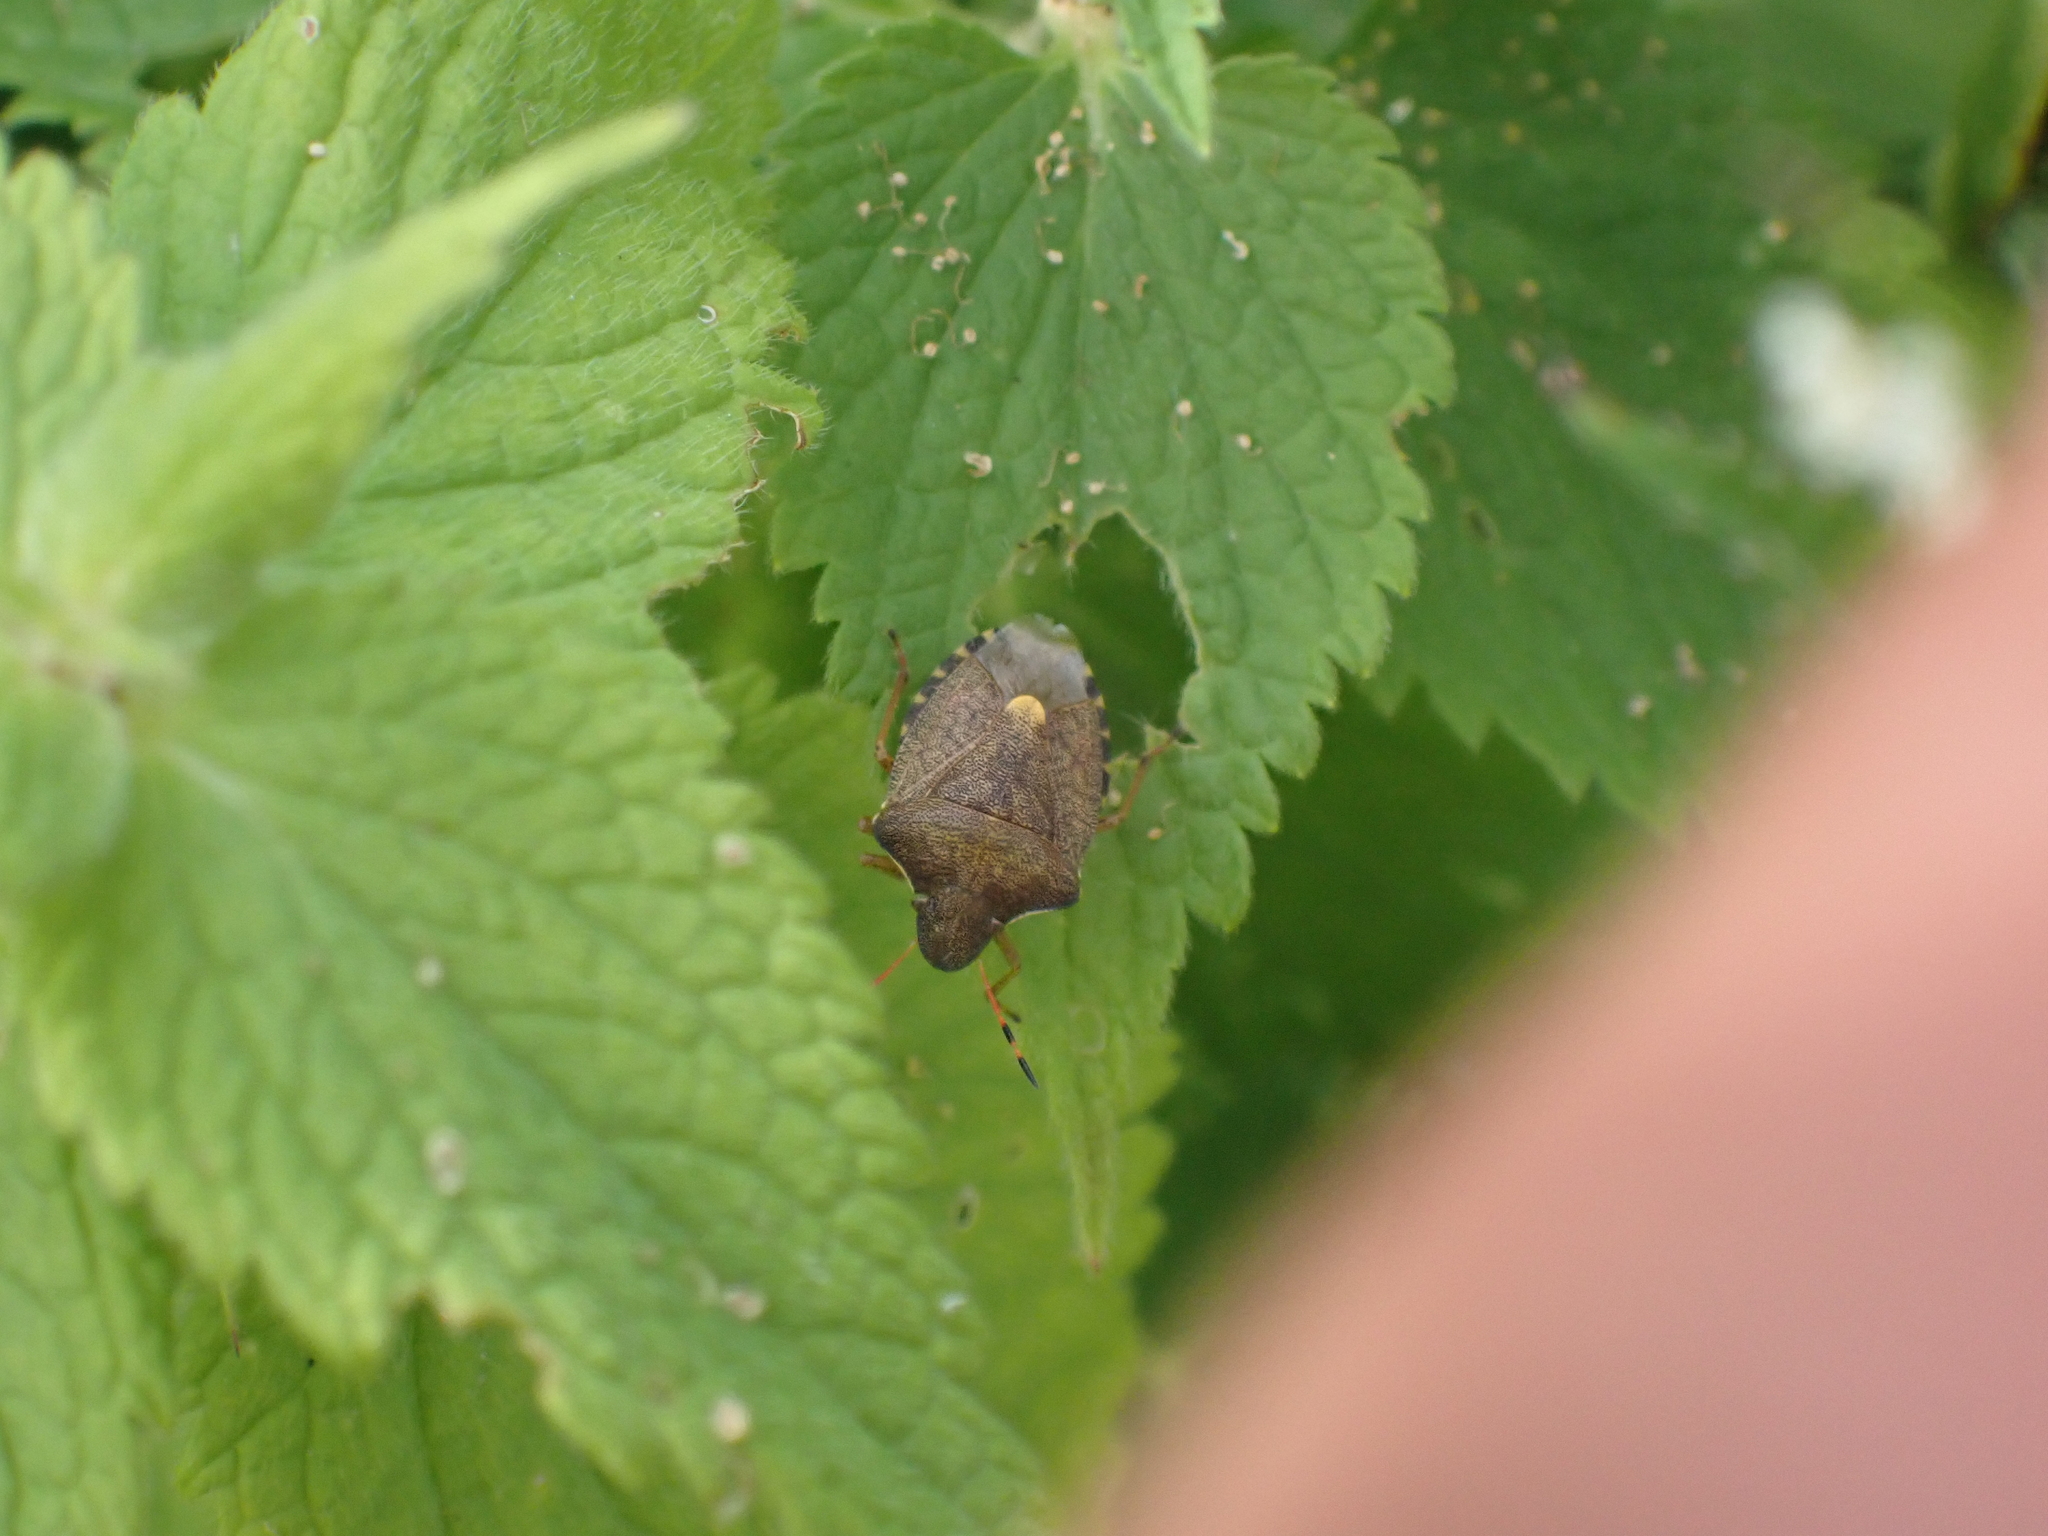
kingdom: Animalia
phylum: Arthropoda
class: Insecta
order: Hemiptera
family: Pentatomidae
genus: Holcostethus
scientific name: Holcostethus strictus
